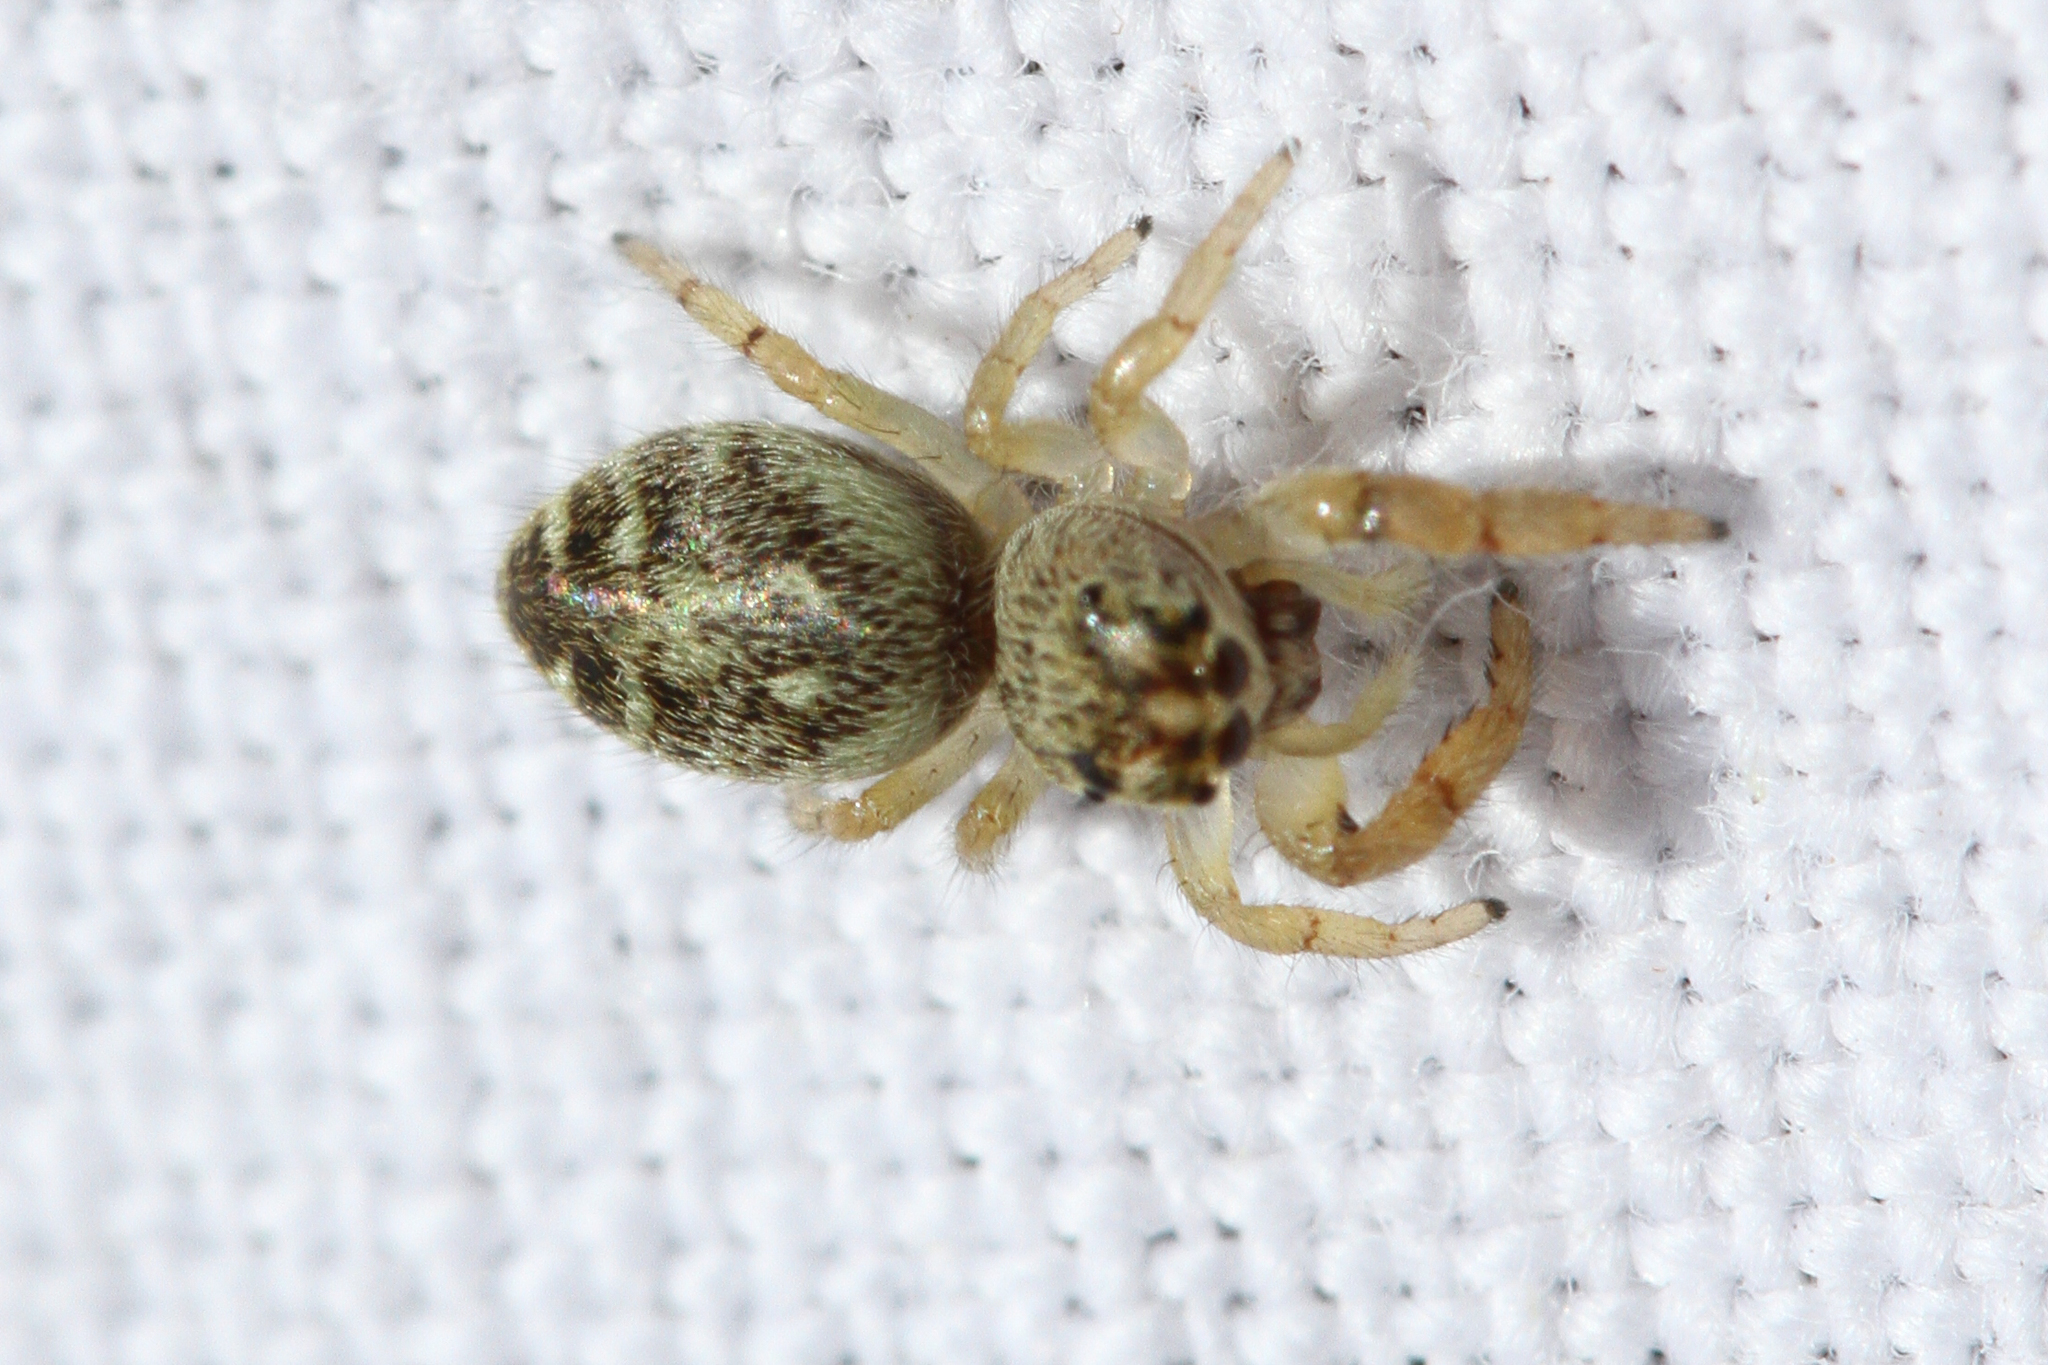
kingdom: Animalia
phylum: Arthropoda
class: Arachnida
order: Araneae
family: Salticidae
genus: Macaroeris
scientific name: Macaroeris nidicolens
